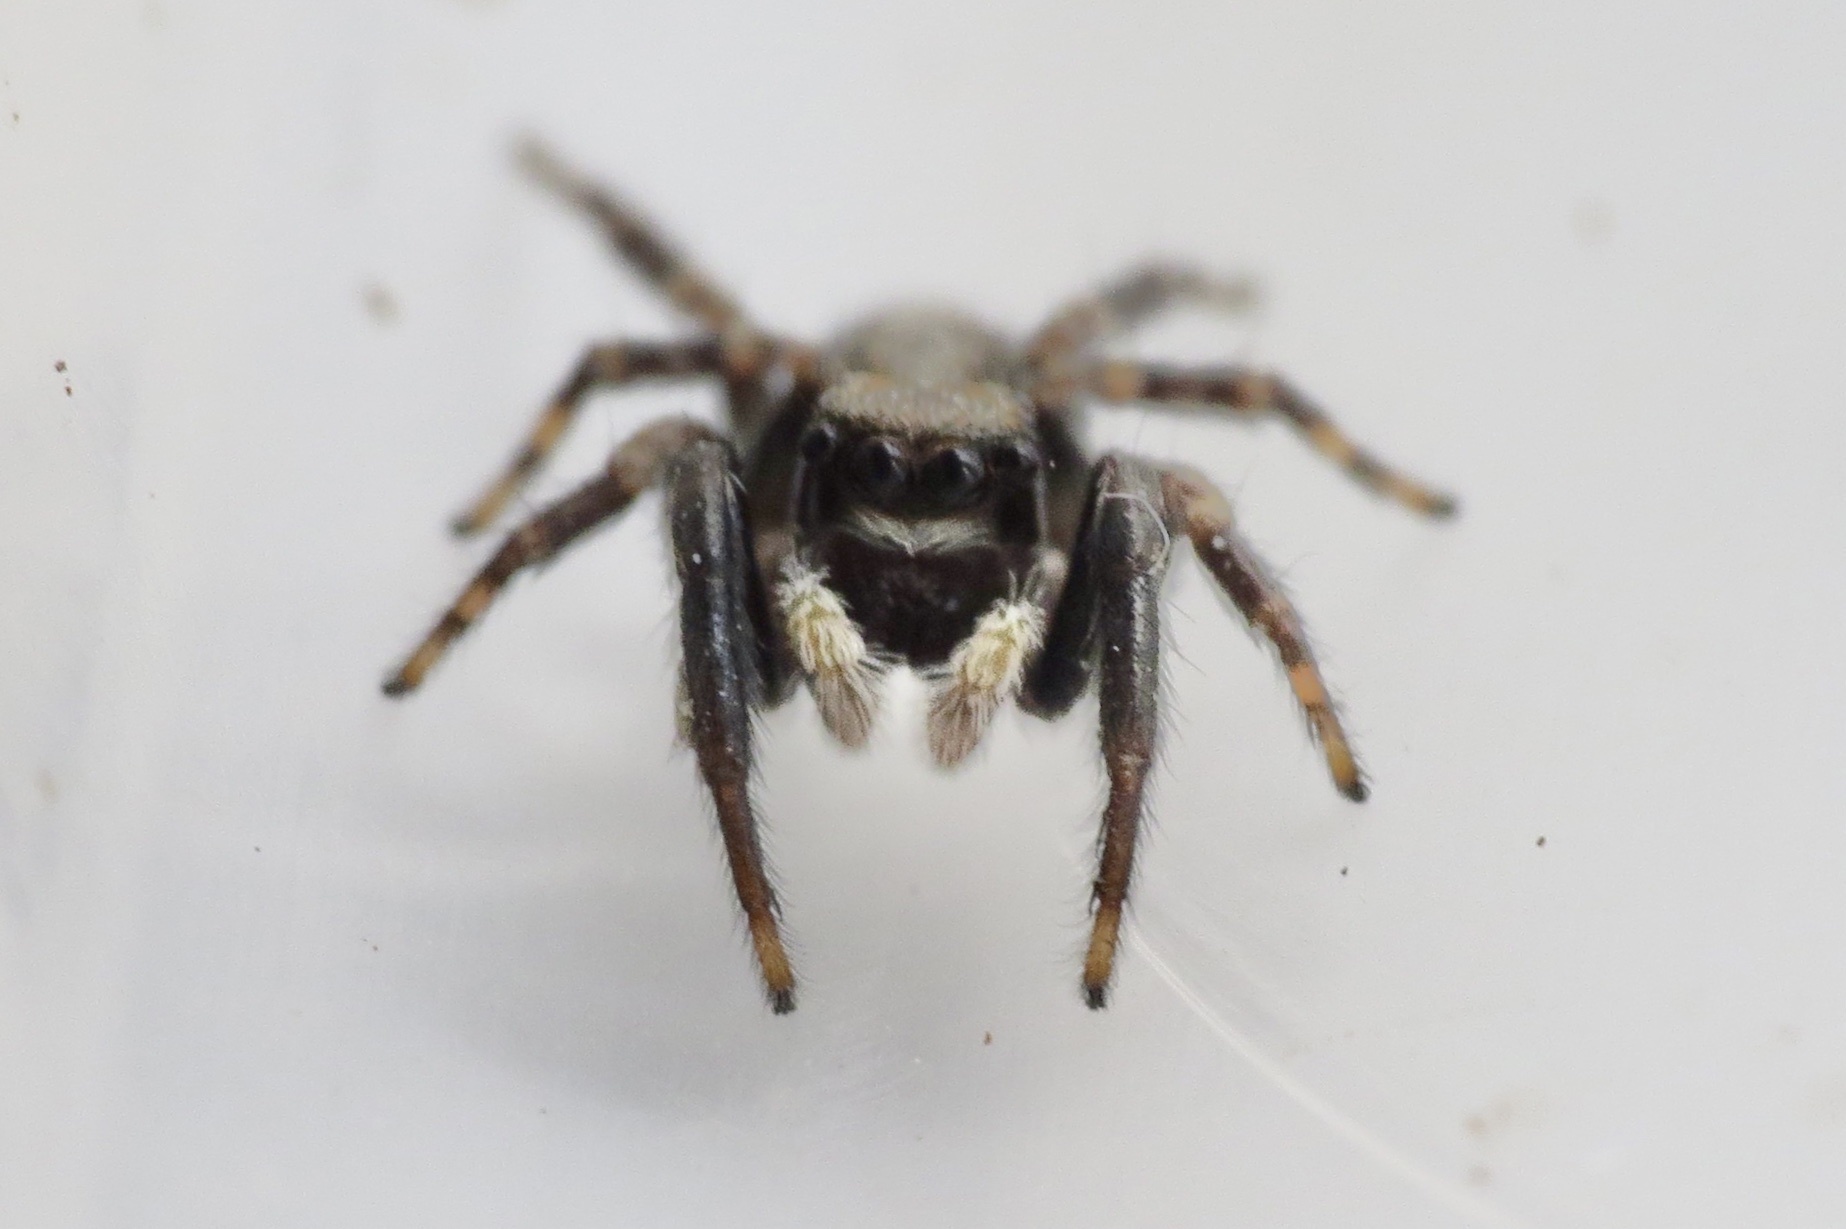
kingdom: Animalia
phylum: Arthropoda
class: Arachnida
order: Araneae
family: Salticidae
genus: Pseudeuophrys
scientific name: Pseudeuophrys lanigera
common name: Jumping spider
